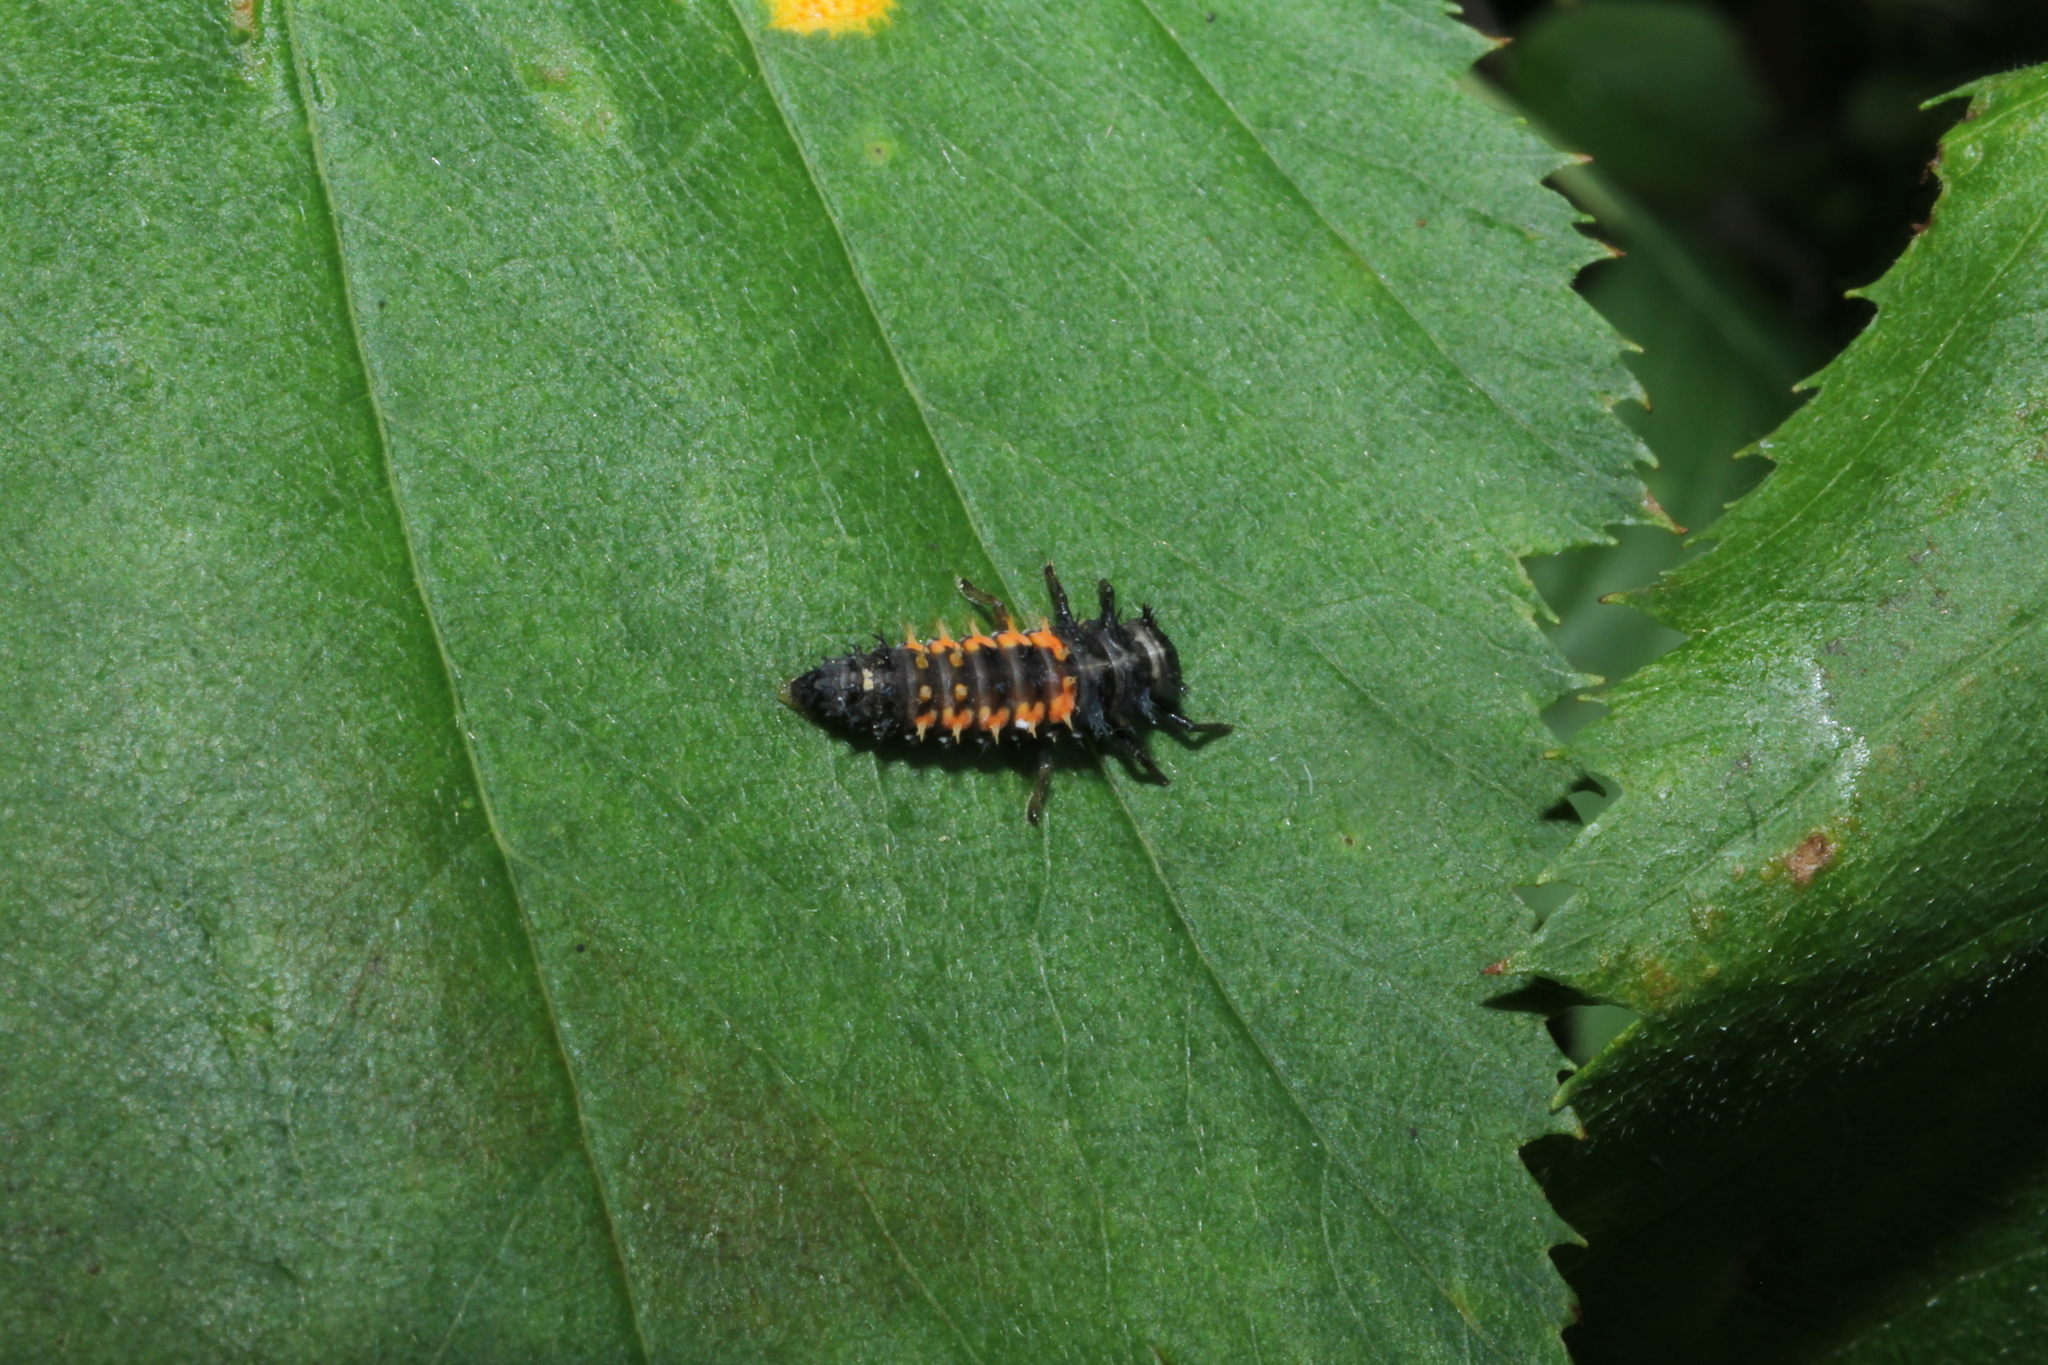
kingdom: Animalia
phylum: Arthropoda
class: Insecta
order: Coleoptera
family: Coccinellidae
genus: Harmonia
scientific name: Harmonia axyridis
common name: Harlequin ladybird
